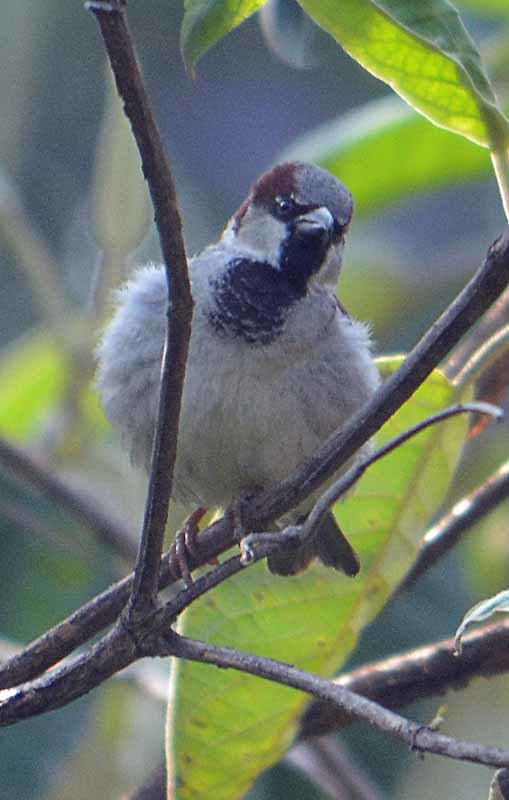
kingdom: Animalia
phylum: Chordata
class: Aves
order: Passeriformes
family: Passeridae
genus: Passer
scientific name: Passer domesticus
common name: House sparrow
